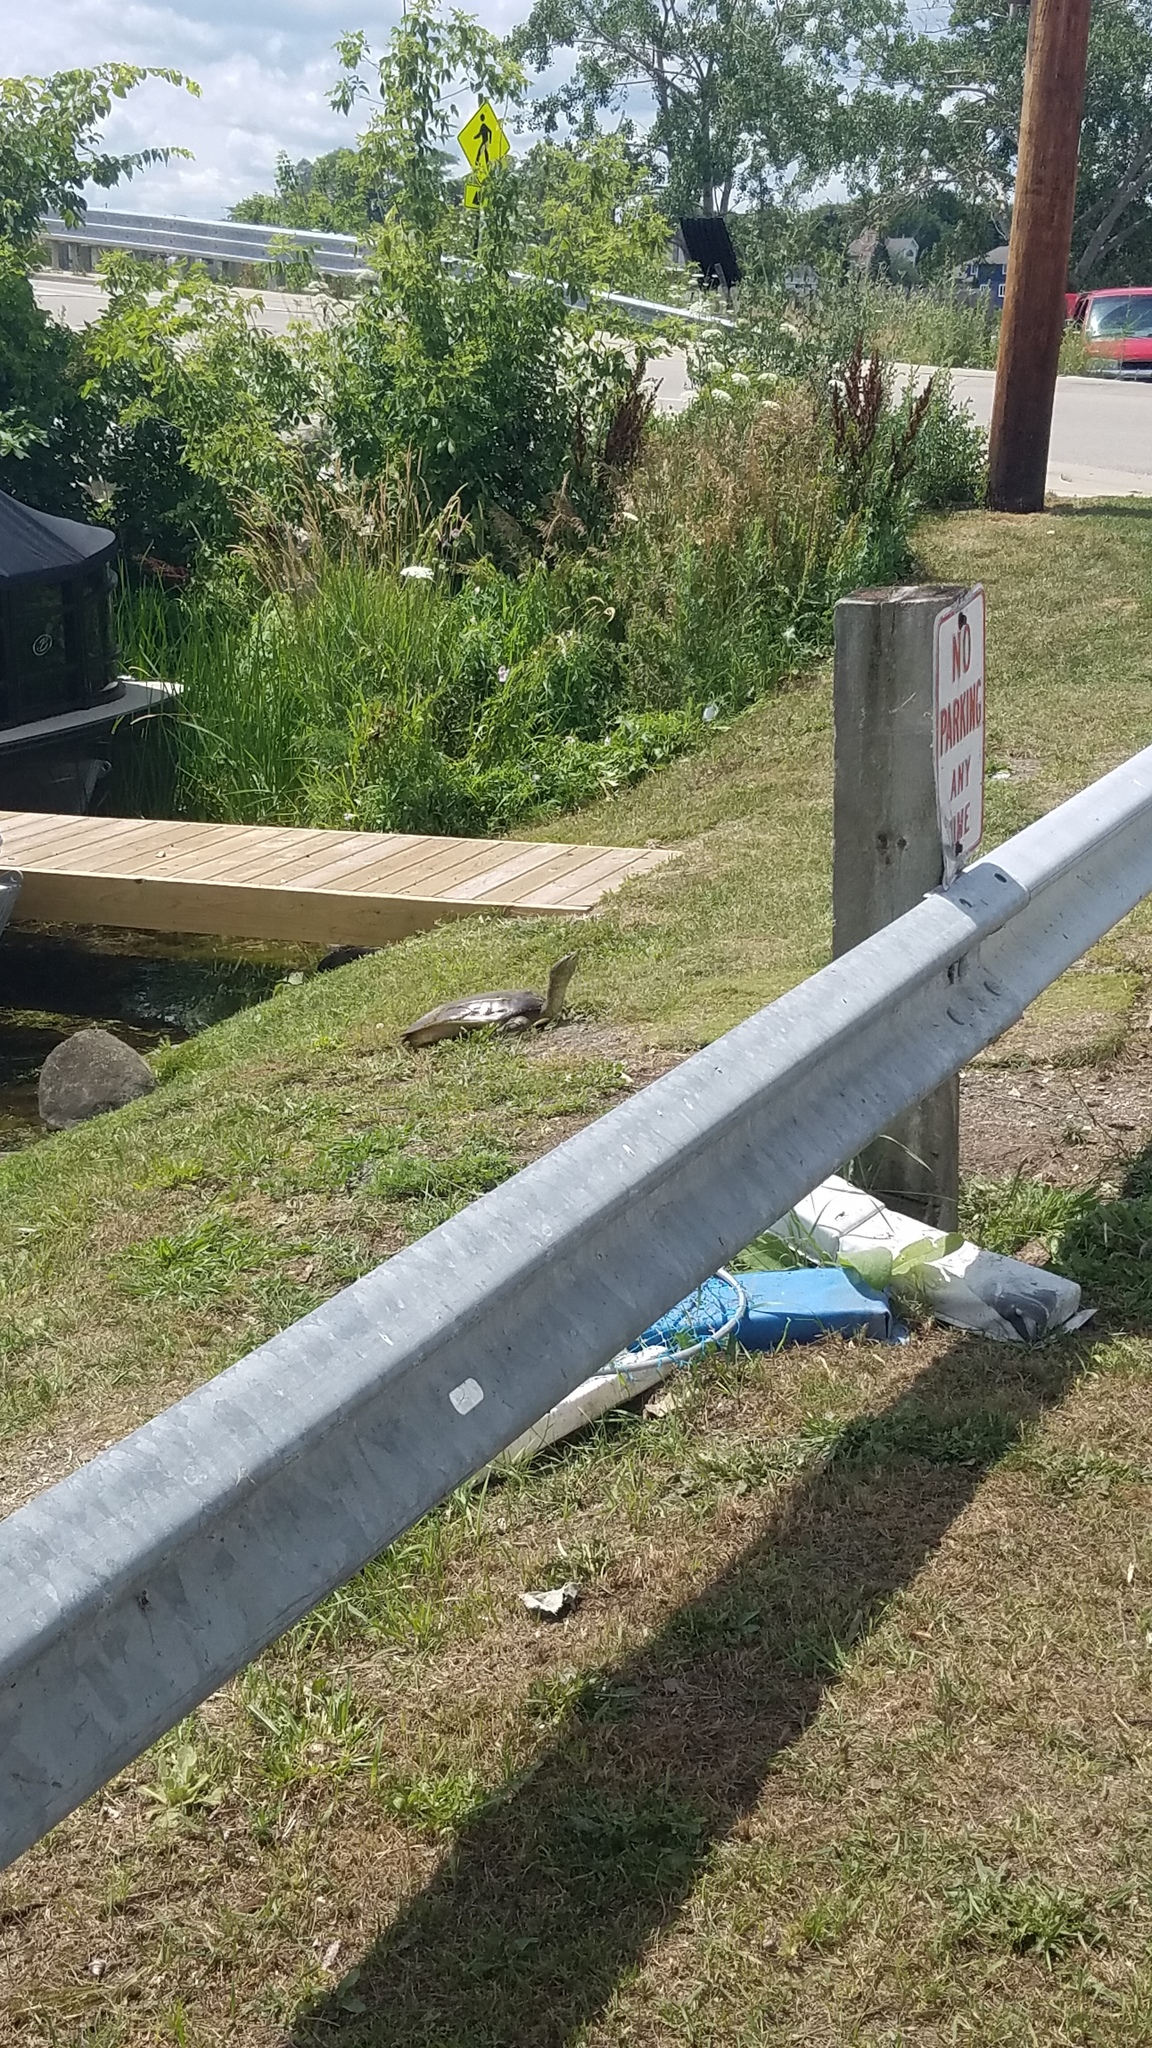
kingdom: Animalia
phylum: Chordata
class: Testudines
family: Trionychidae
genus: Apalone
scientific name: Apalone spinifera
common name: Spiny softshell turtle
